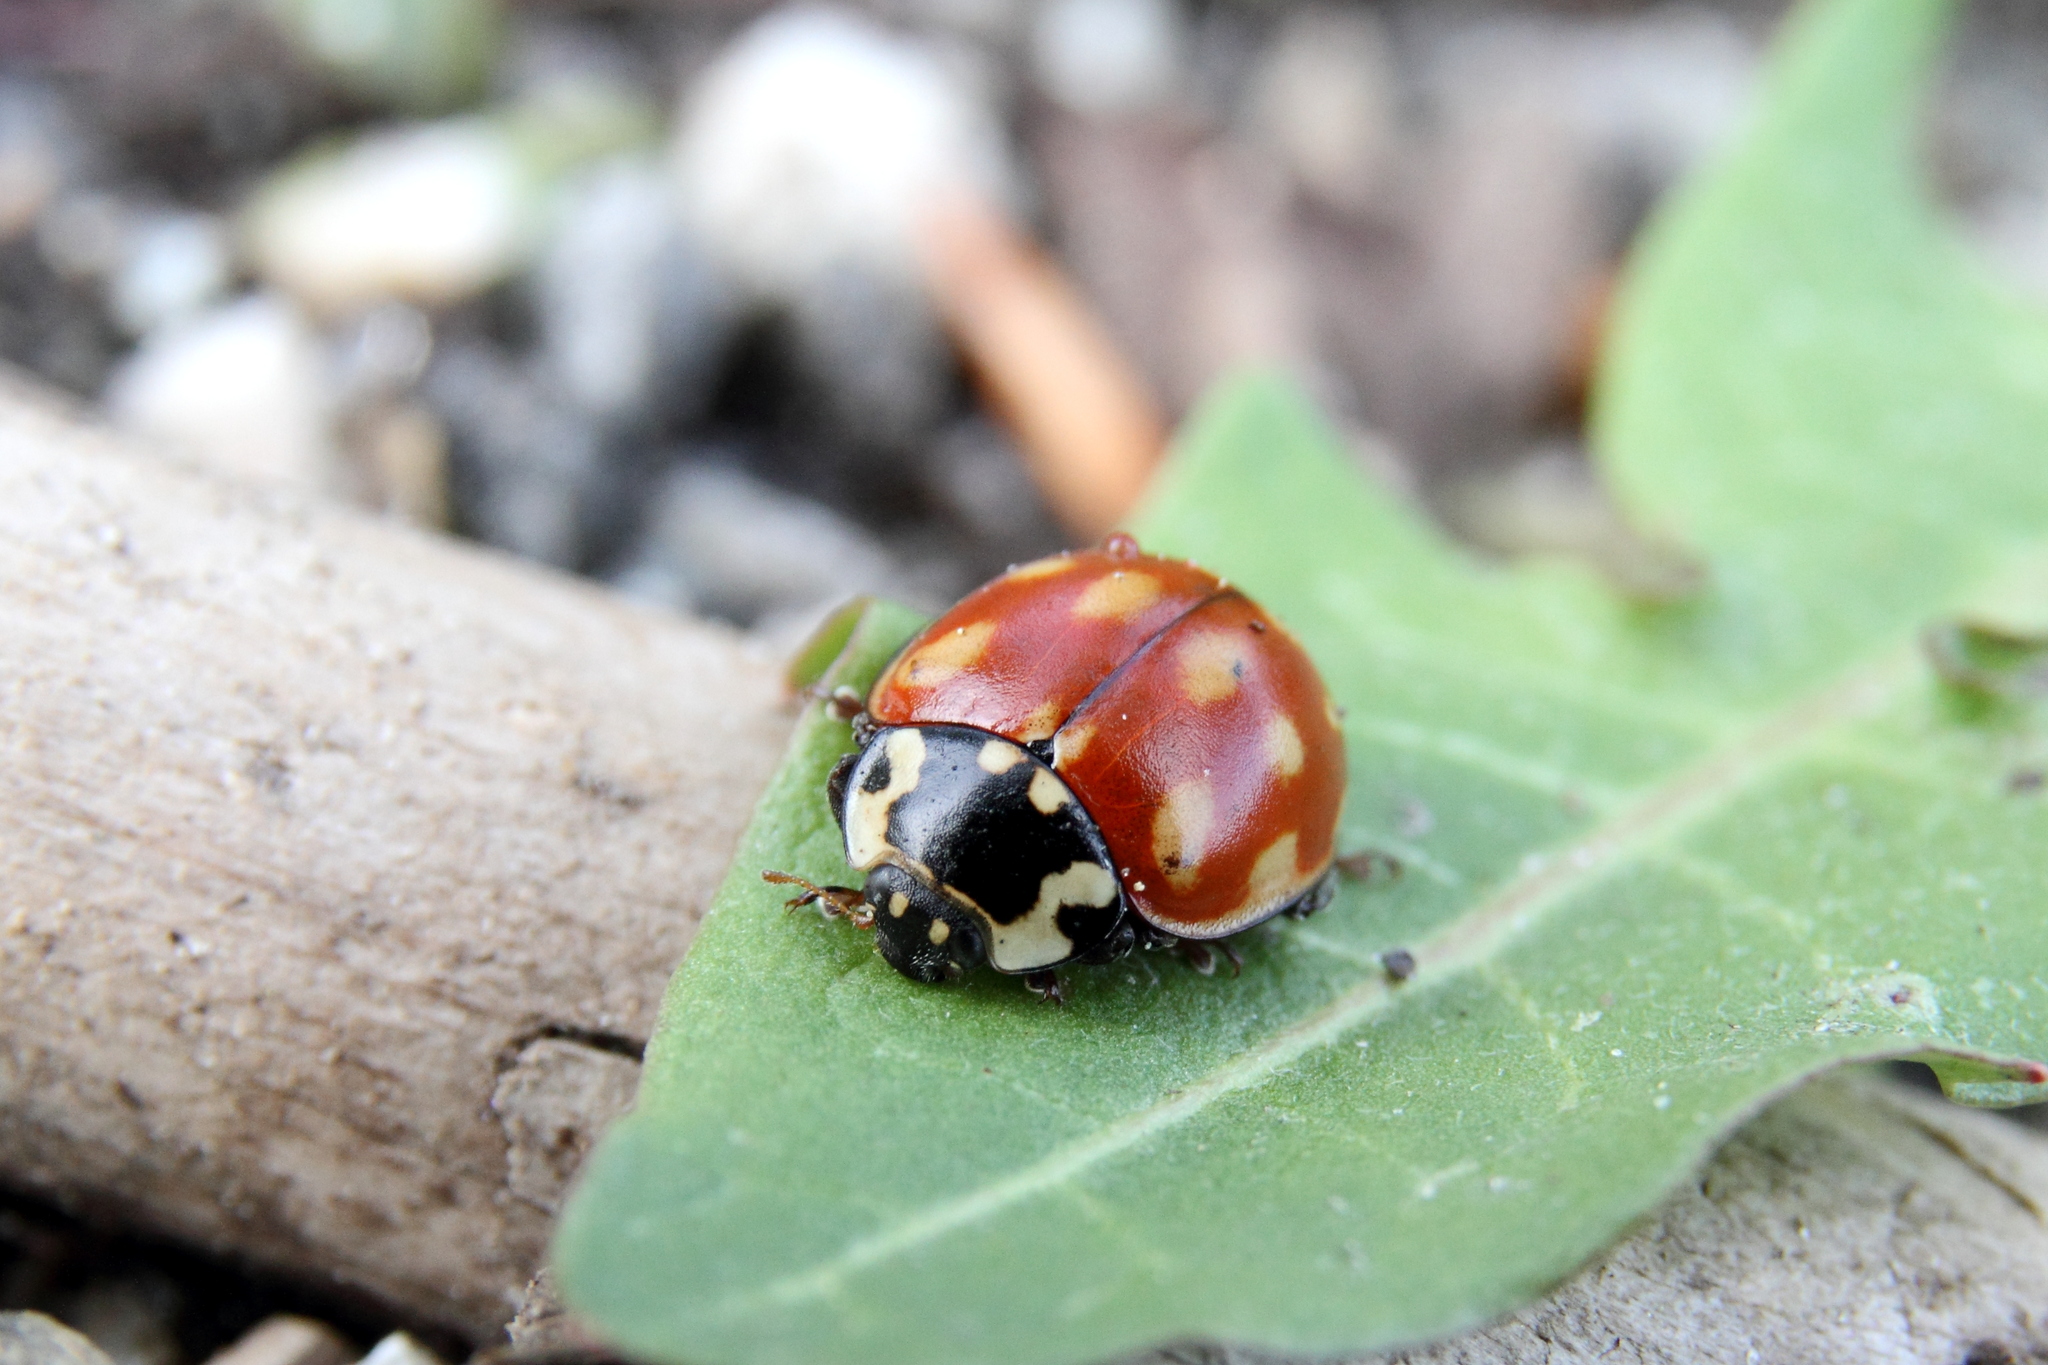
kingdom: Animalia
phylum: Arthropoda
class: Insecta
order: Coleoptera
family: Coccinellidae
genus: Anatis
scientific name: Anatis ocellata
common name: Eyed ladybird
